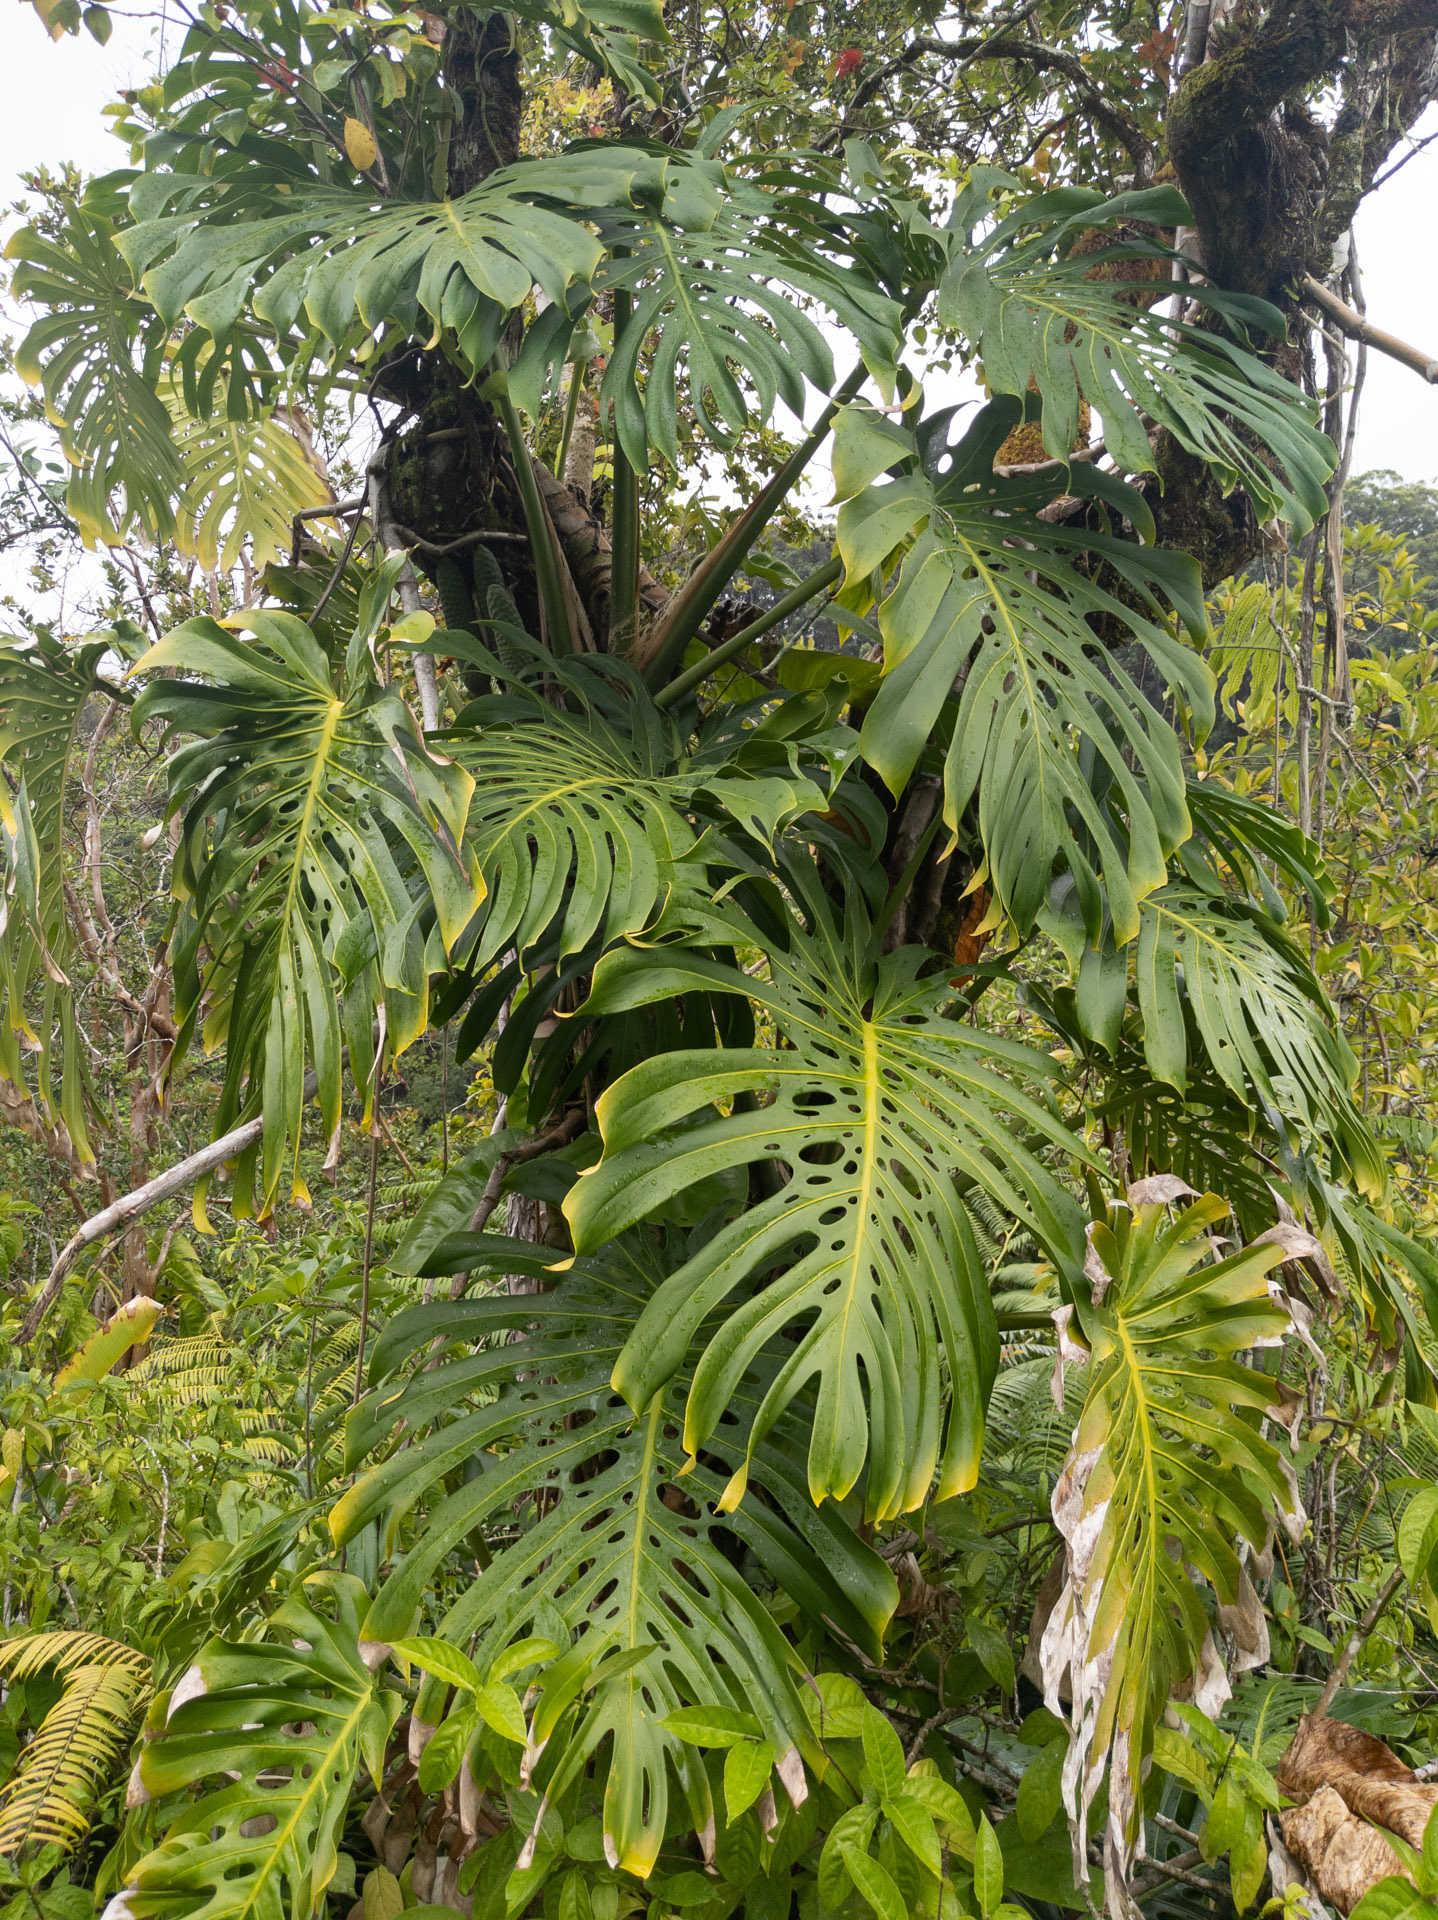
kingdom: Plantae
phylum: Tracheophyta
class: Liliopsida
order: Alismatales
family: Araceae
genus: Monstera
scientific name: Monstera deliciosa
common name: Cut-leaf-philodendron
